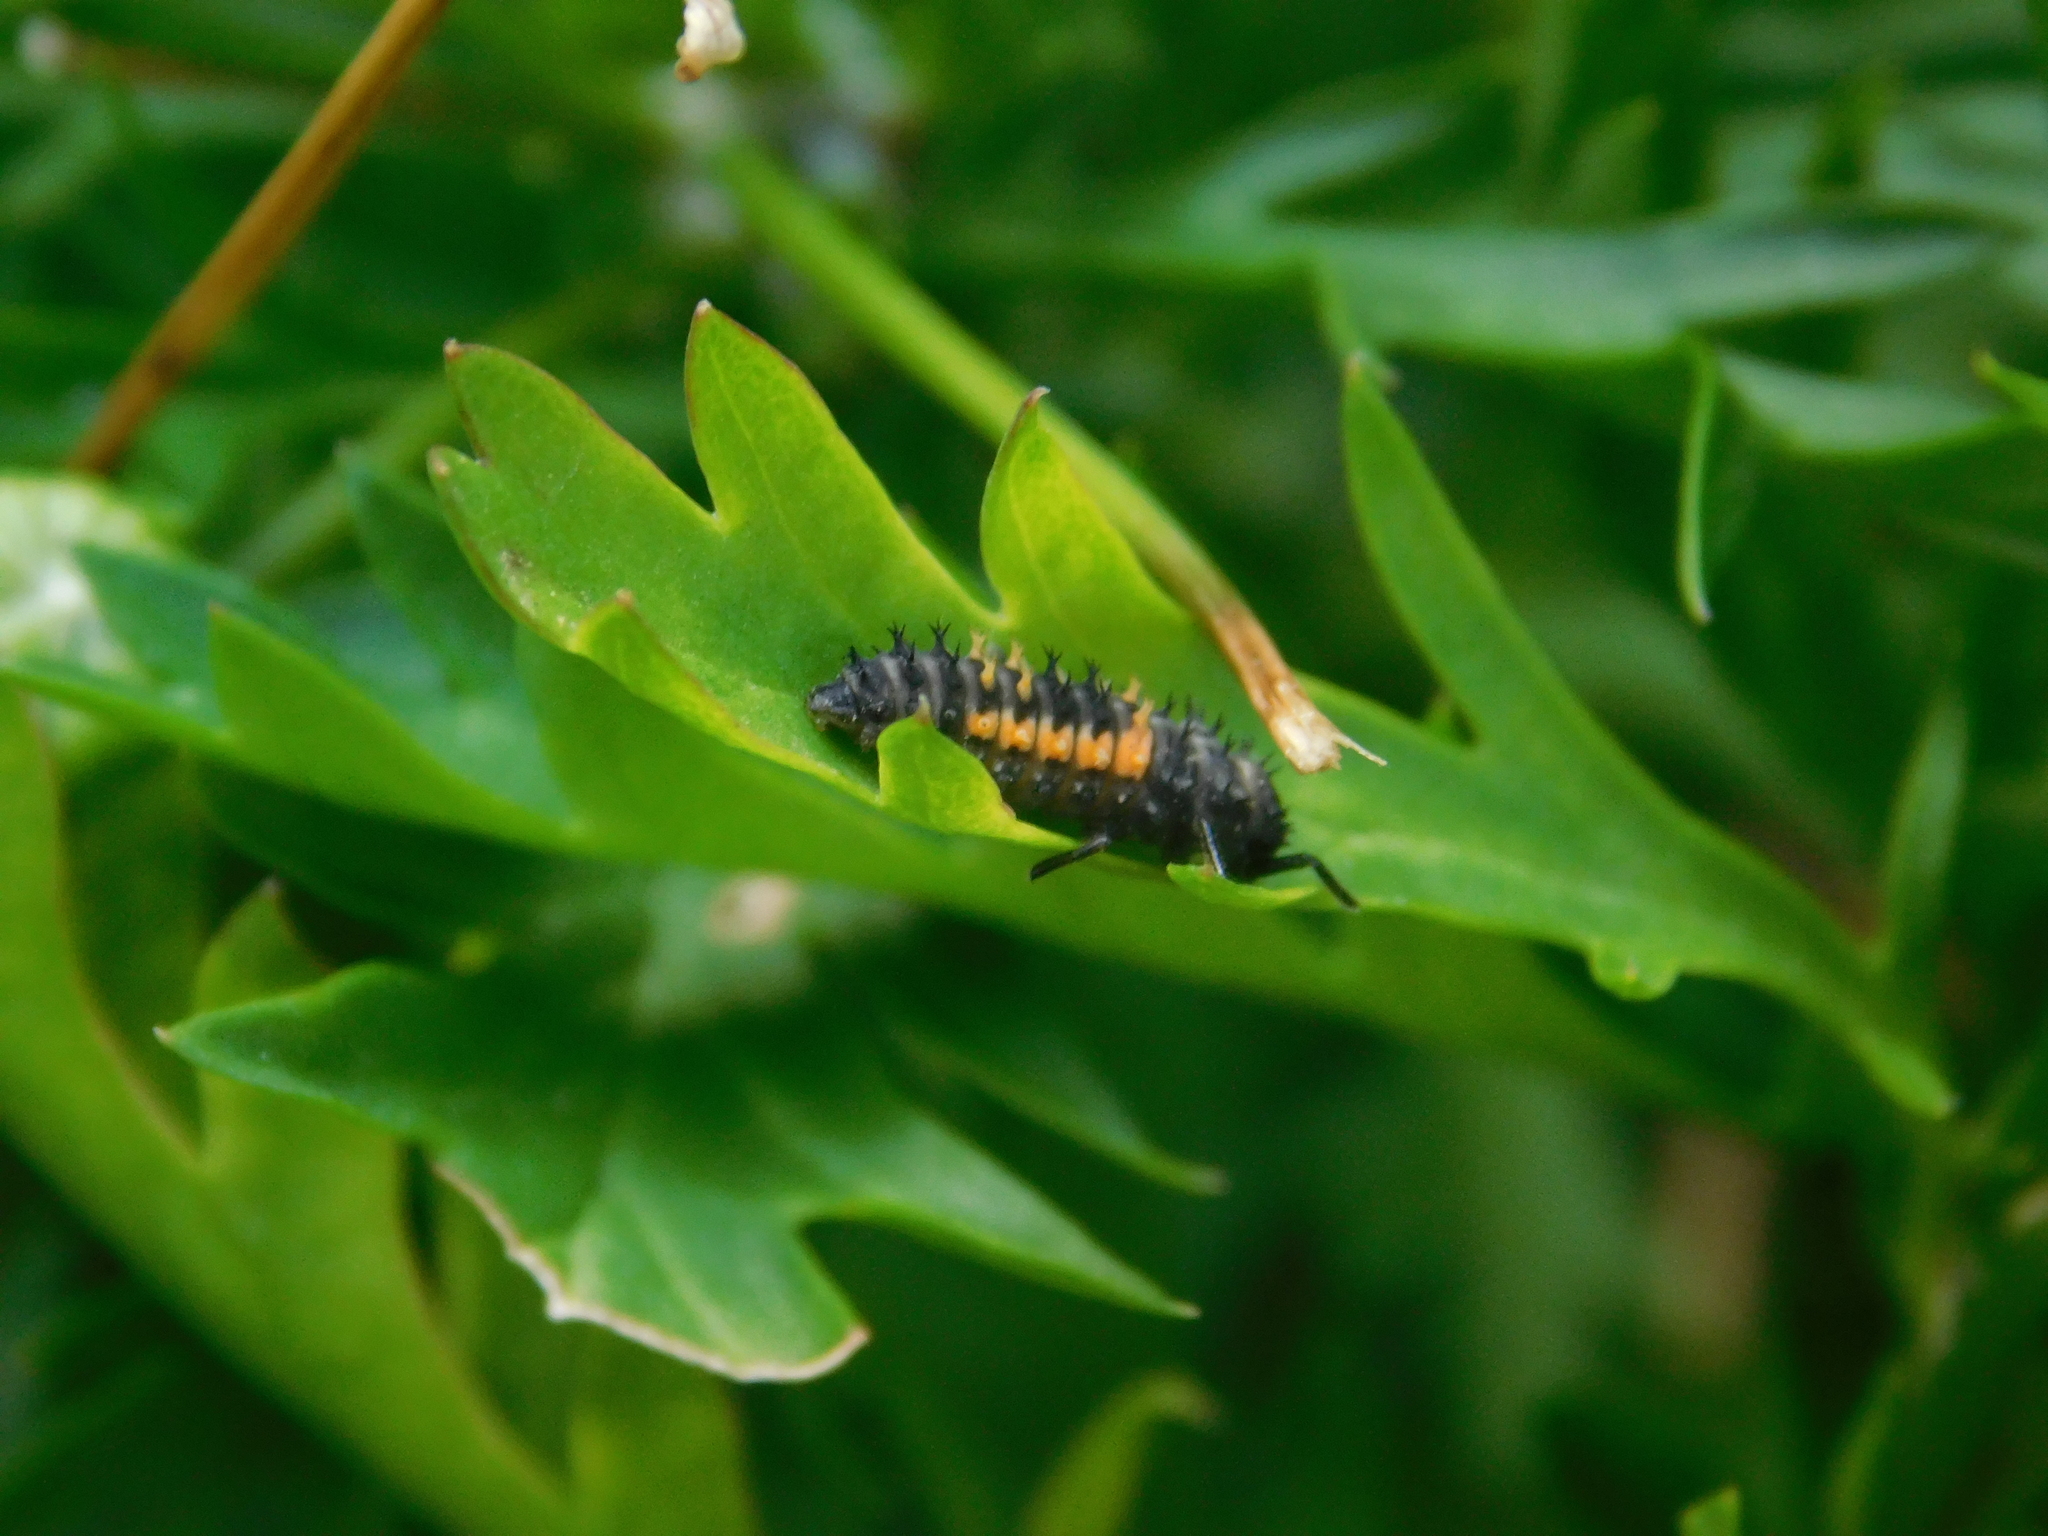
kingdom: Animalia
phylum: Arthropoda
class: Insecta
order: Coleoptera
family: Coccinellidae
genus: Harmonia
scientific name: Harmonia axyridis
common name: Harlequin ladybird
